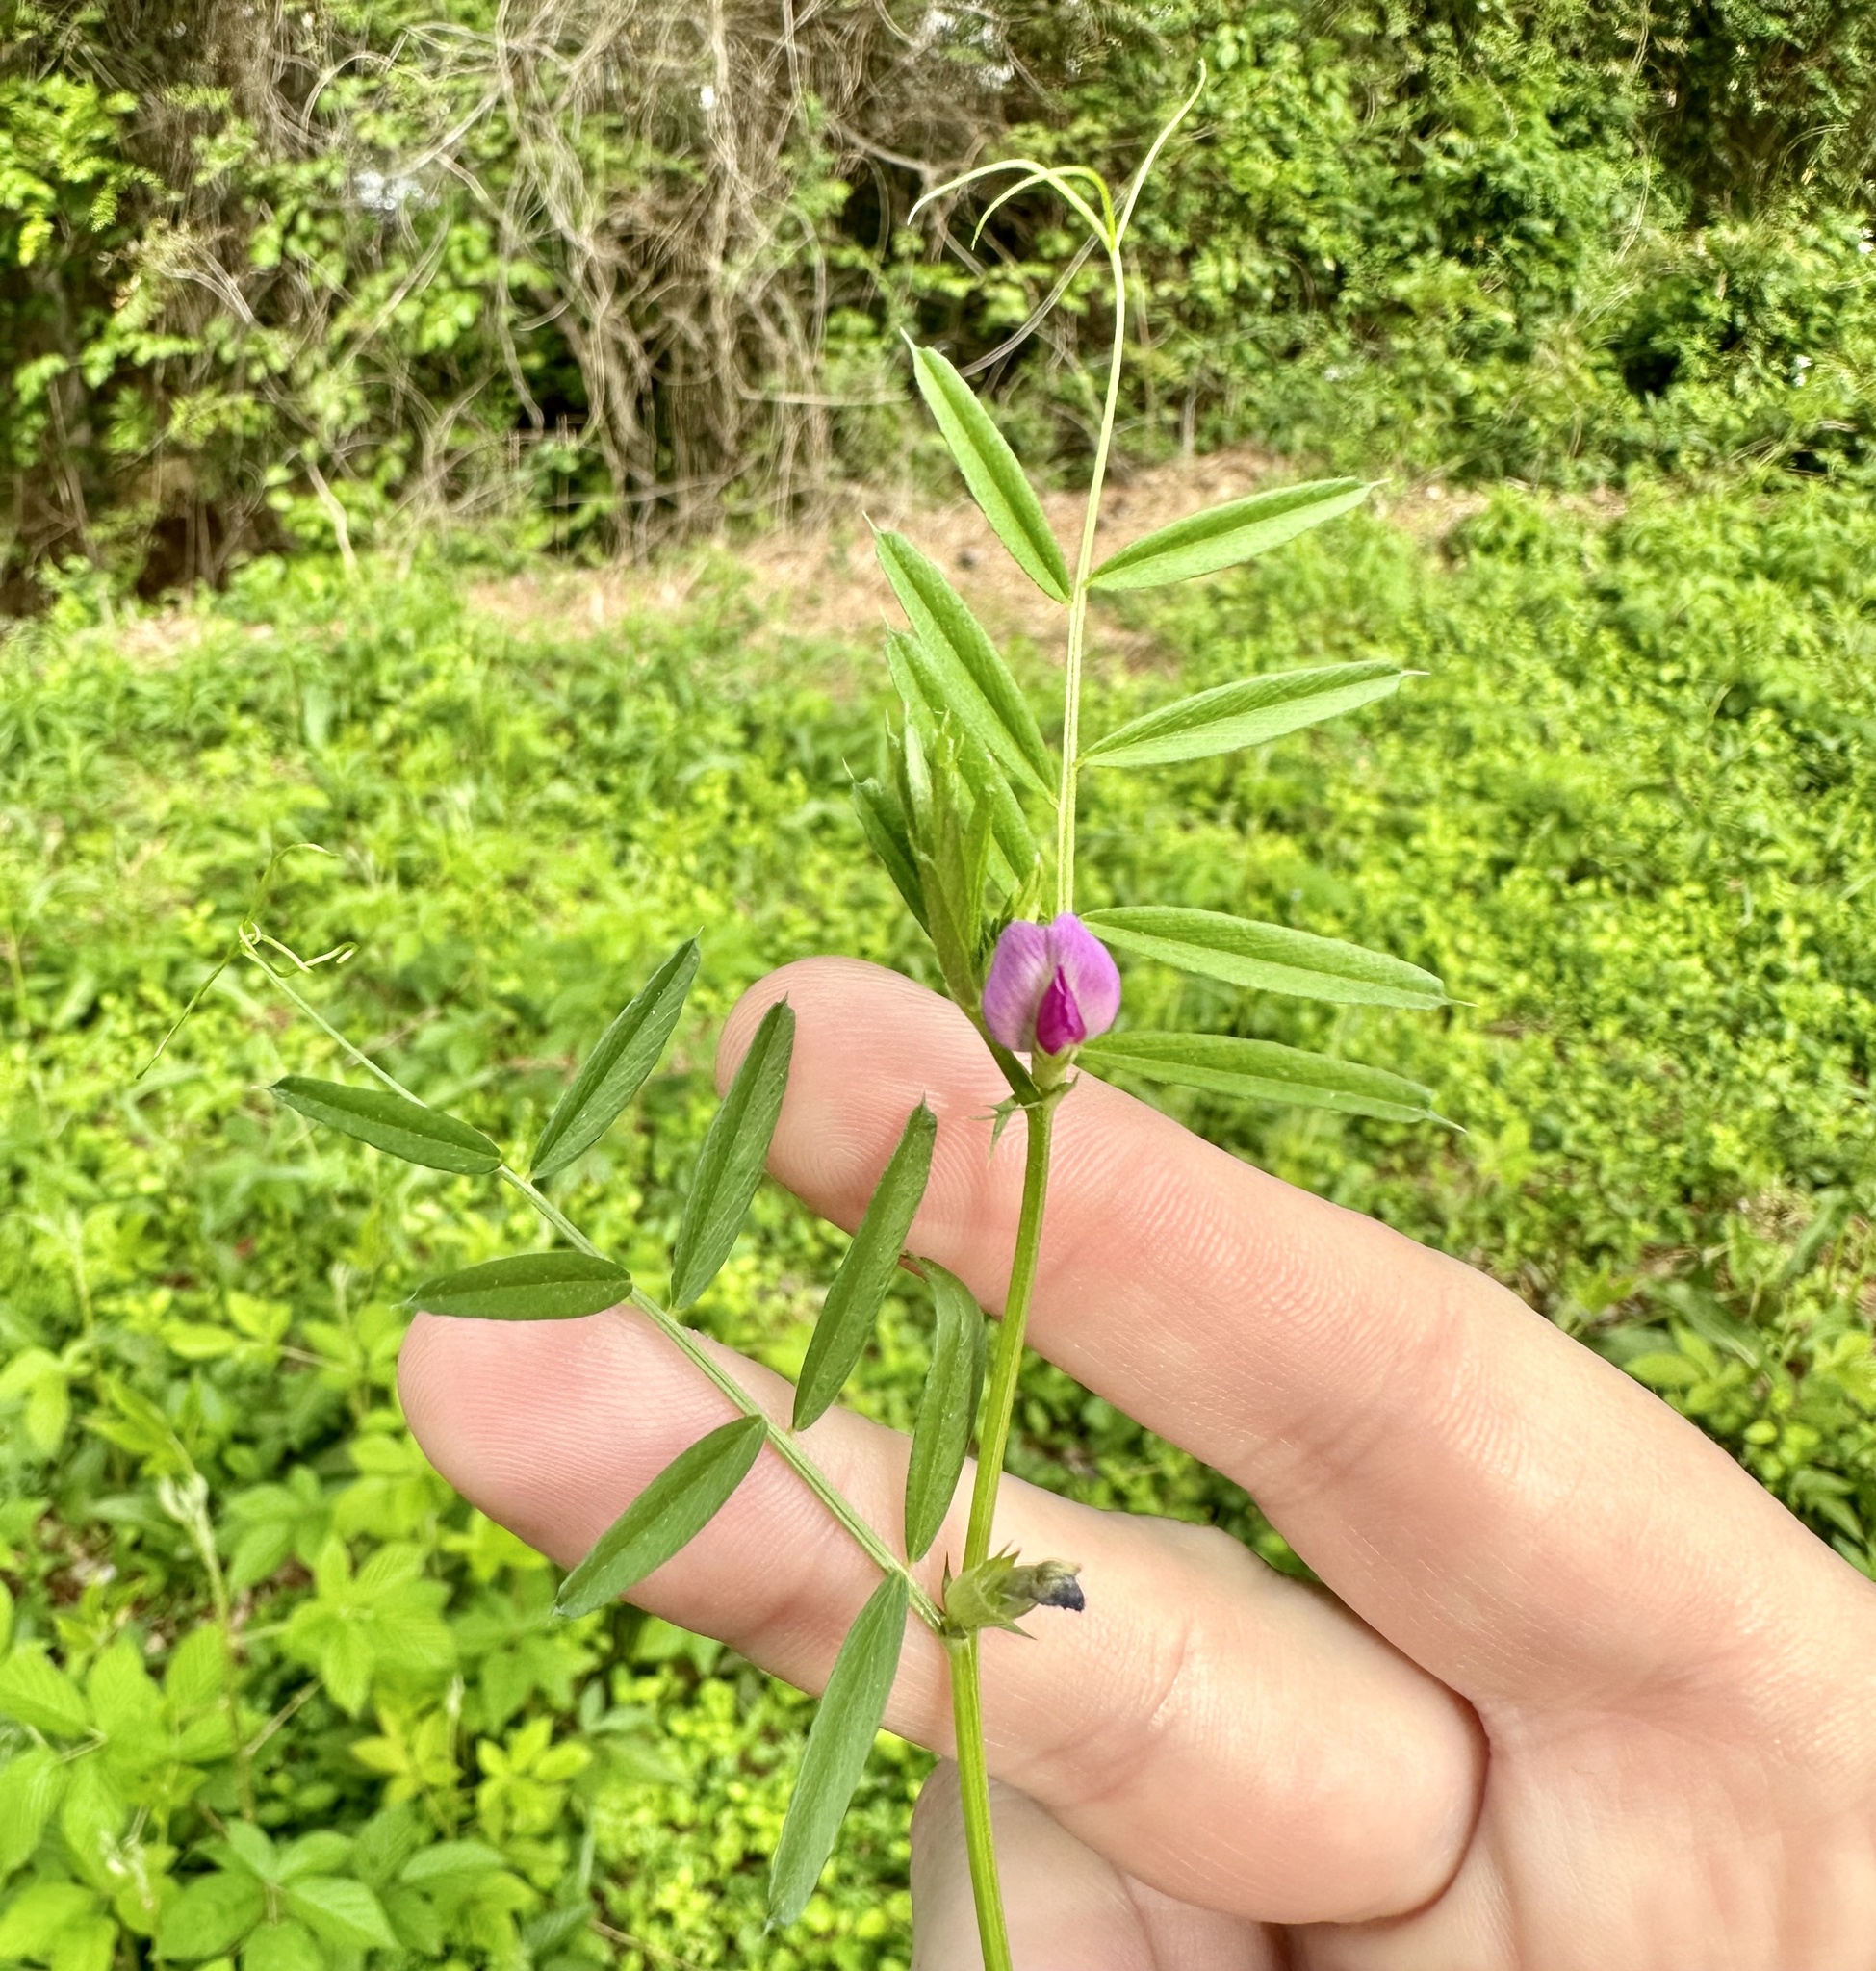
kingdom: Plantae
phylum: Tracheophyta
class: Magnoliopsida
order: Fabales
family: Fabaceae
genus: Vicia
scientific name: Vicia sativa
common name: Garden vetch
